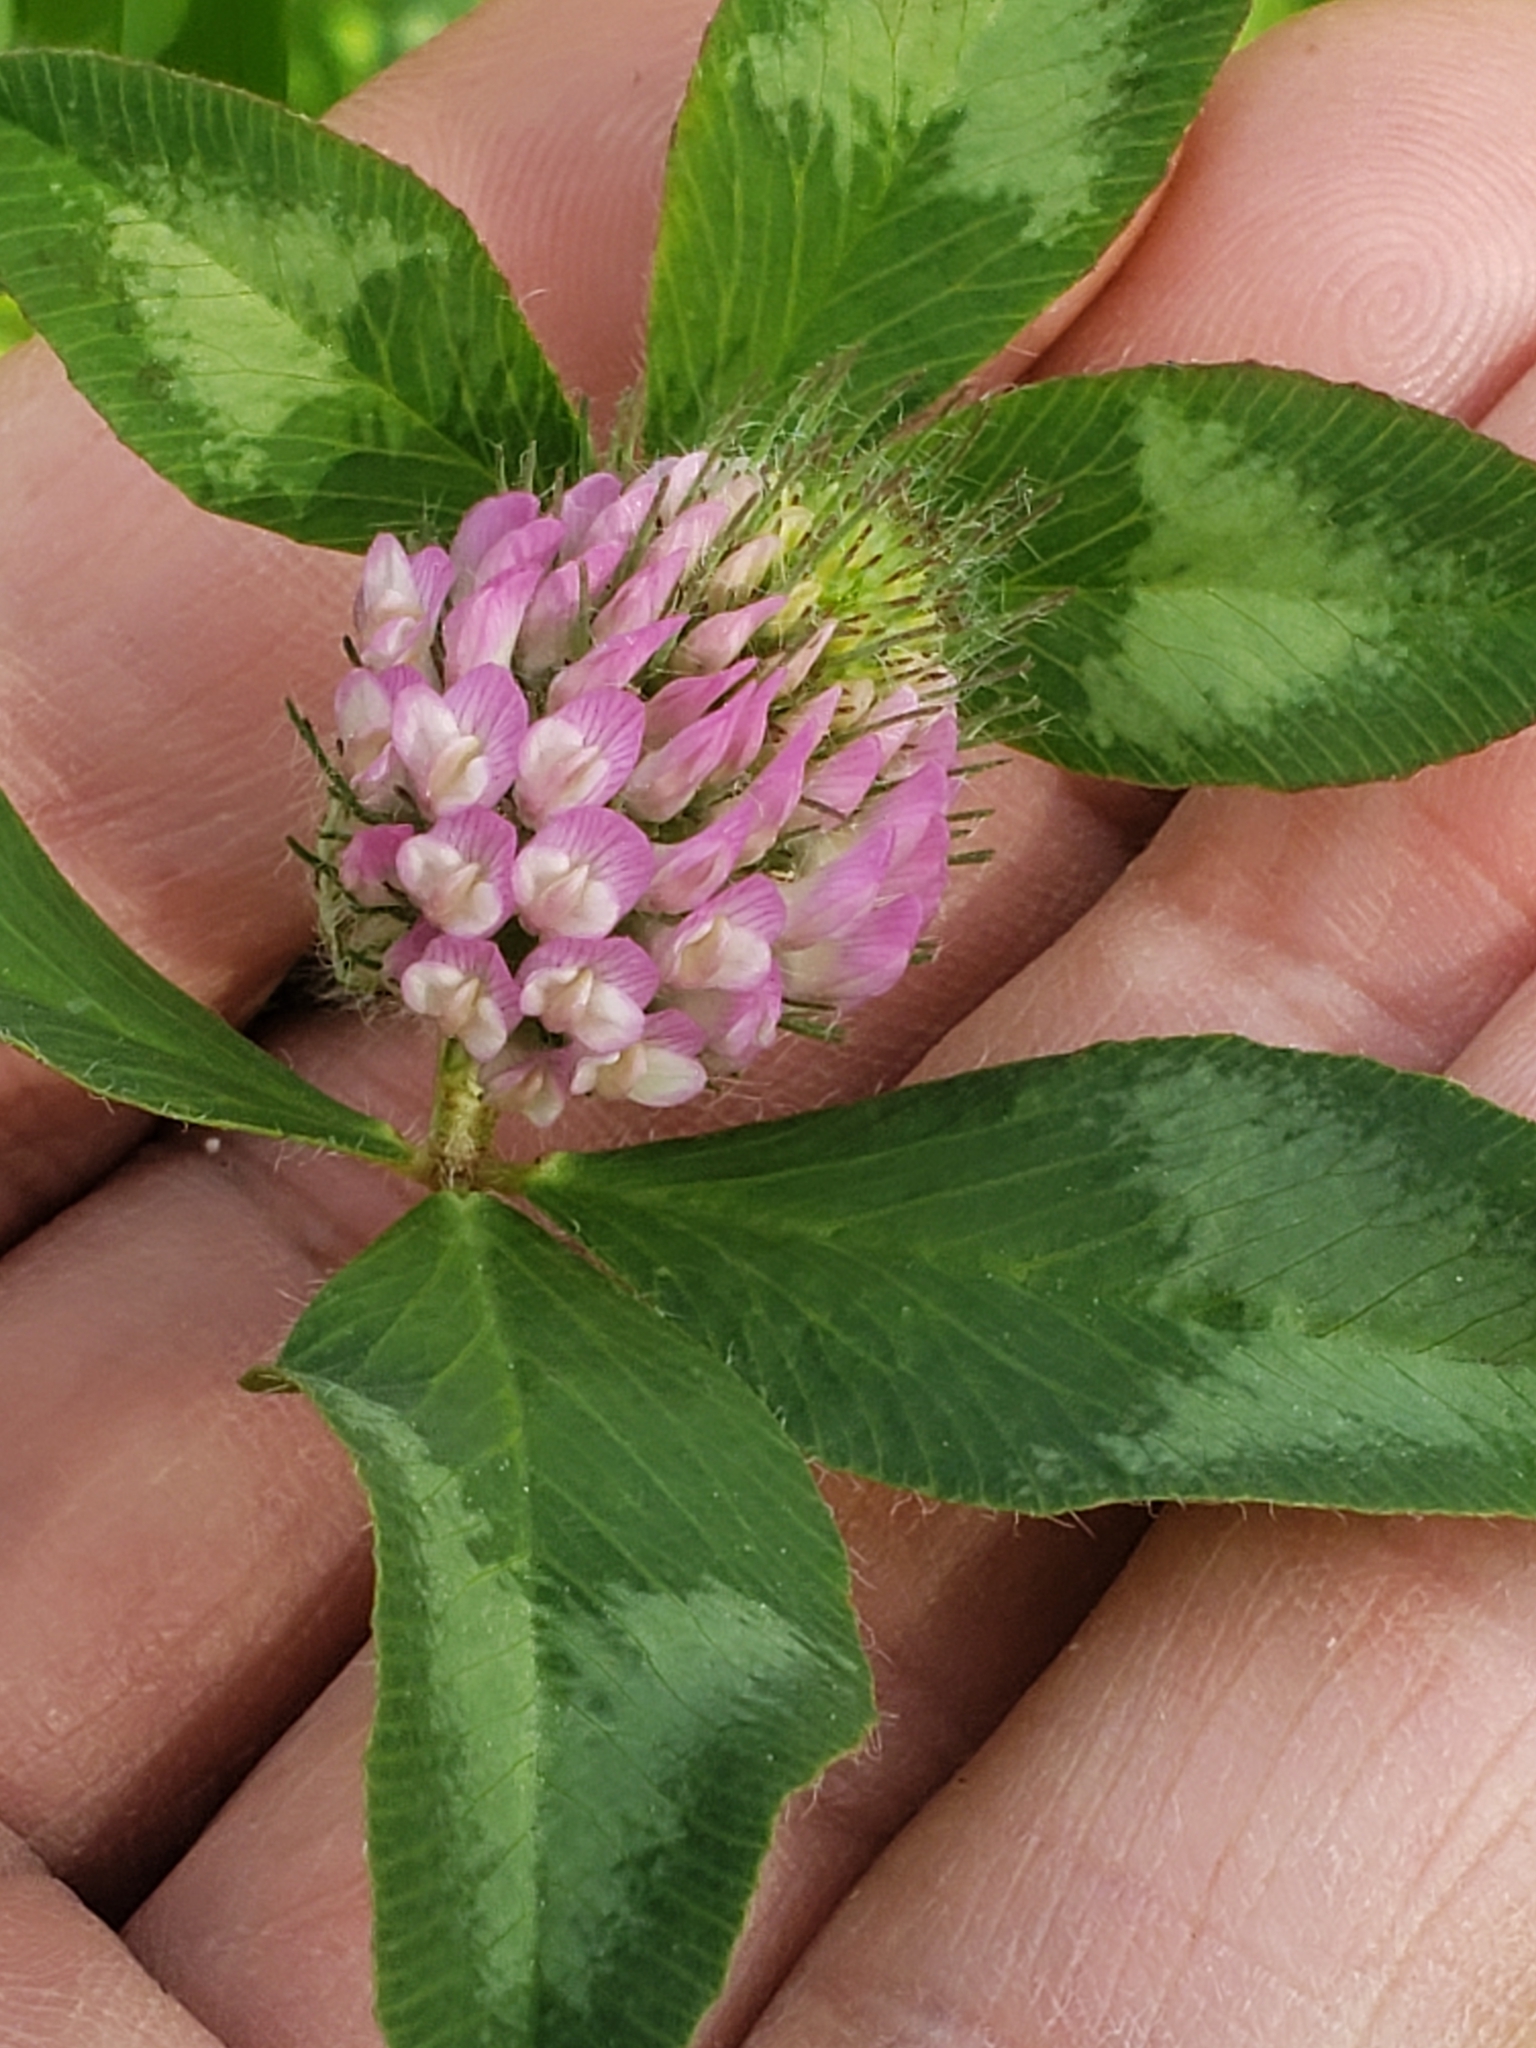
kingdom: Plantae
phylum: Tracheophyta
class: Magnoliopsida
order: Fabales
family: Fabaceae
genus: Trifolium
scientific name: Trifolium pratense
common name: Red clover
